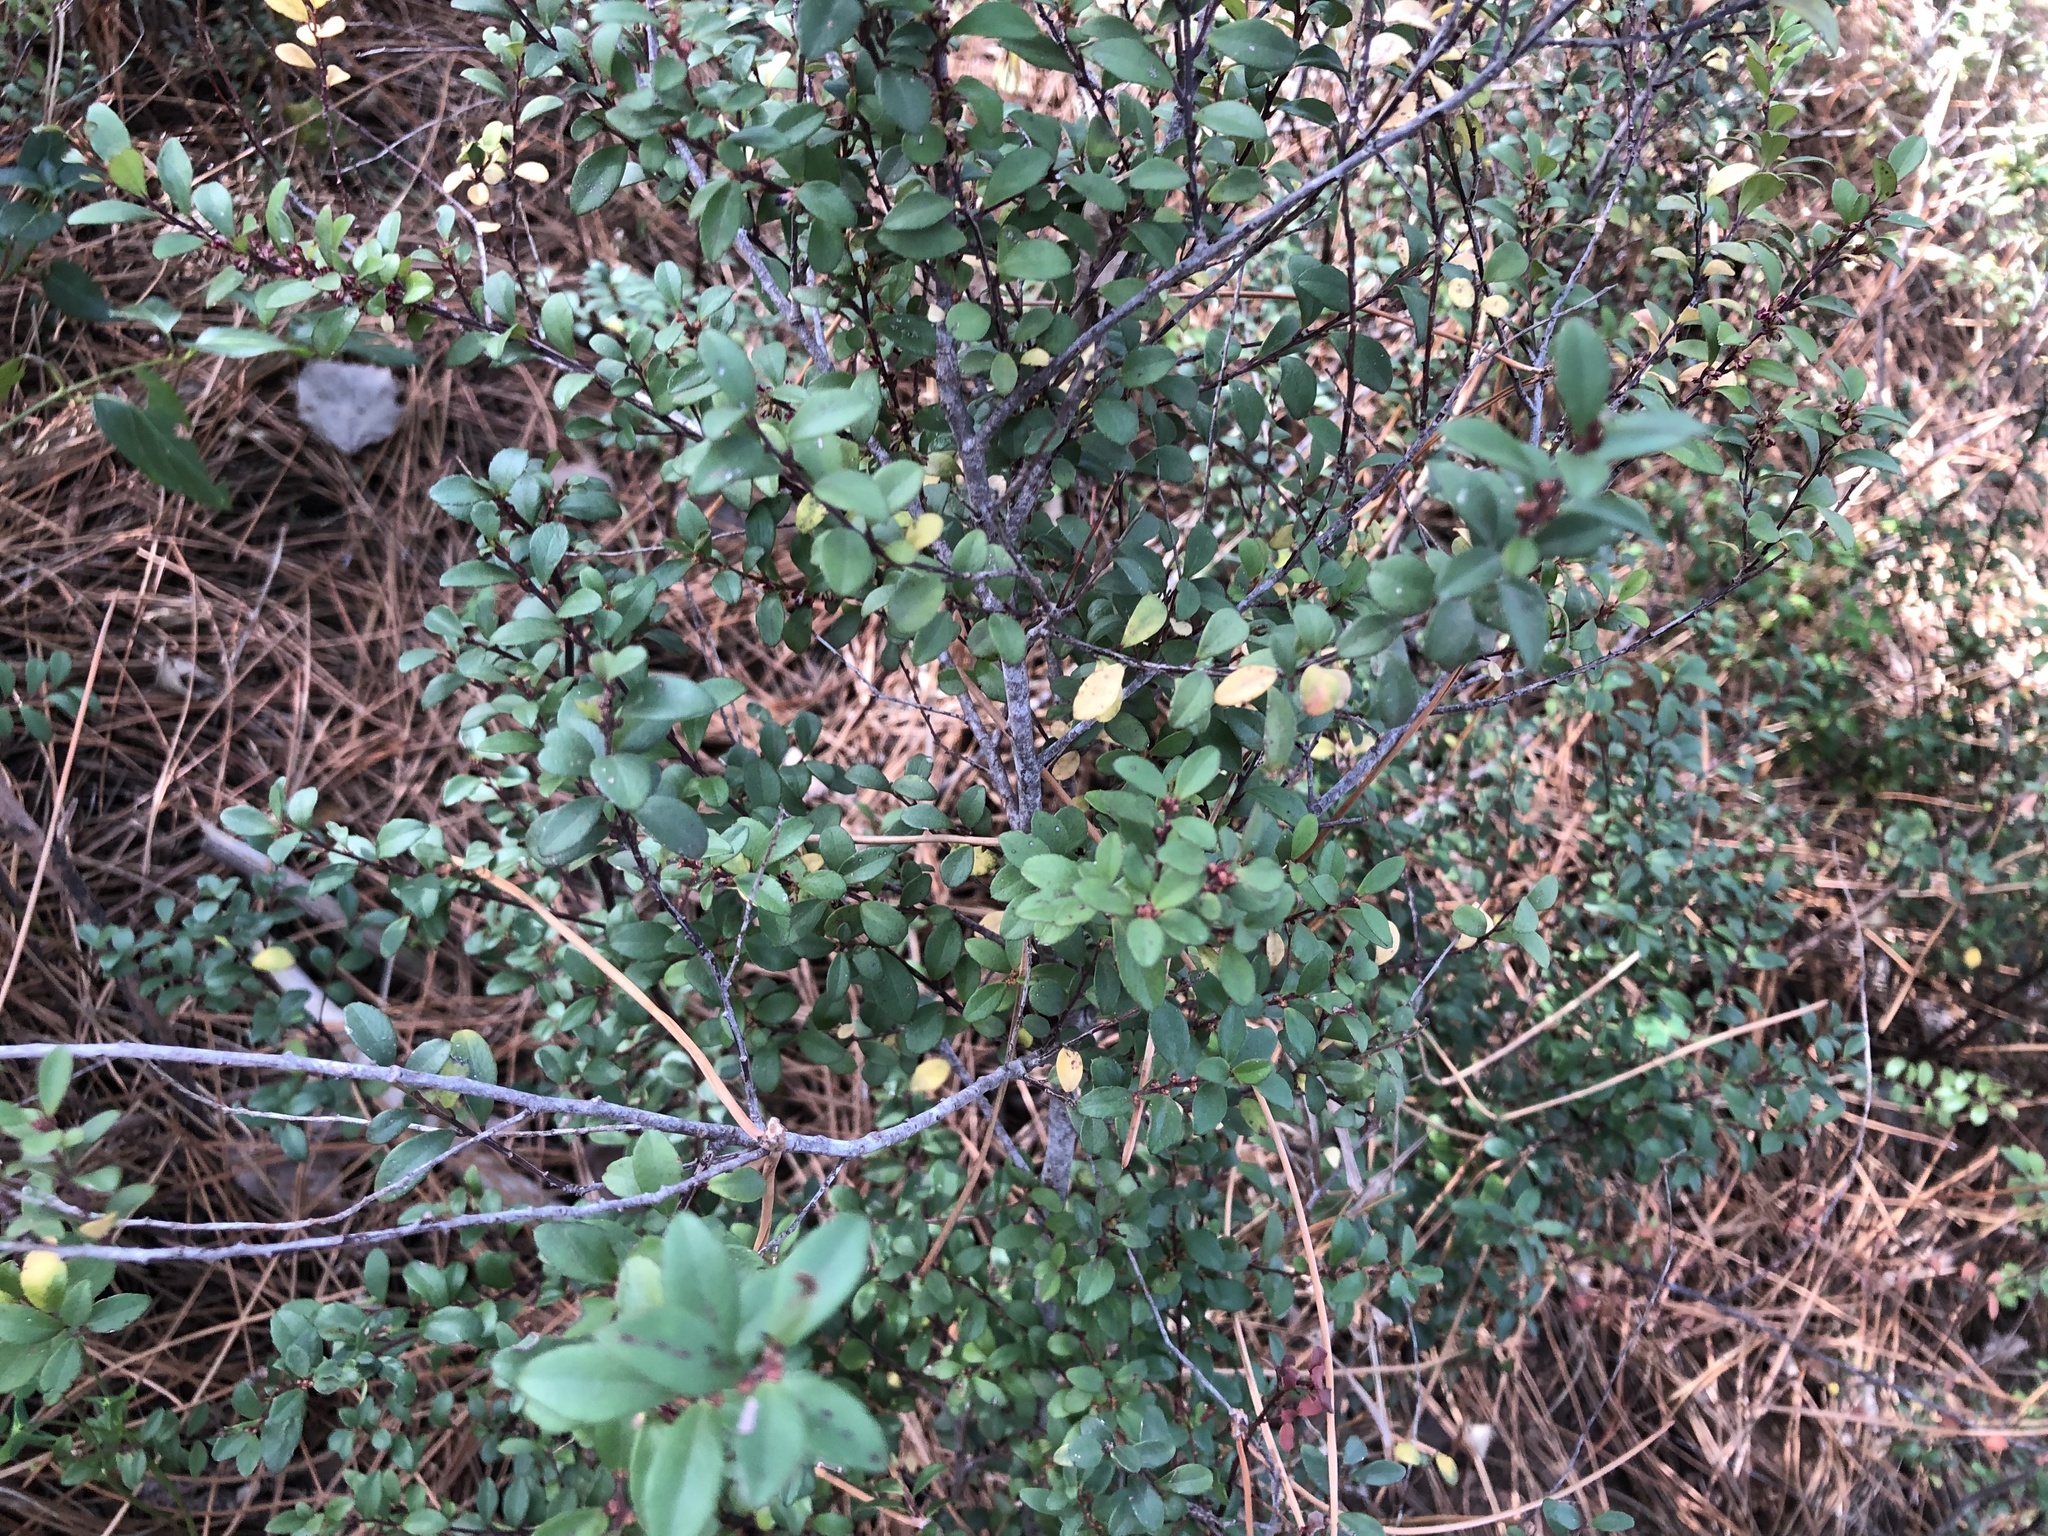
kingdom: Plantae
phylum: Tracheophyta
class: Magnoliopsida
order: Ericales
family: Primulaceae
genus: Myrsine
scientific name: Myrsine africana
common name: African-boxwood
